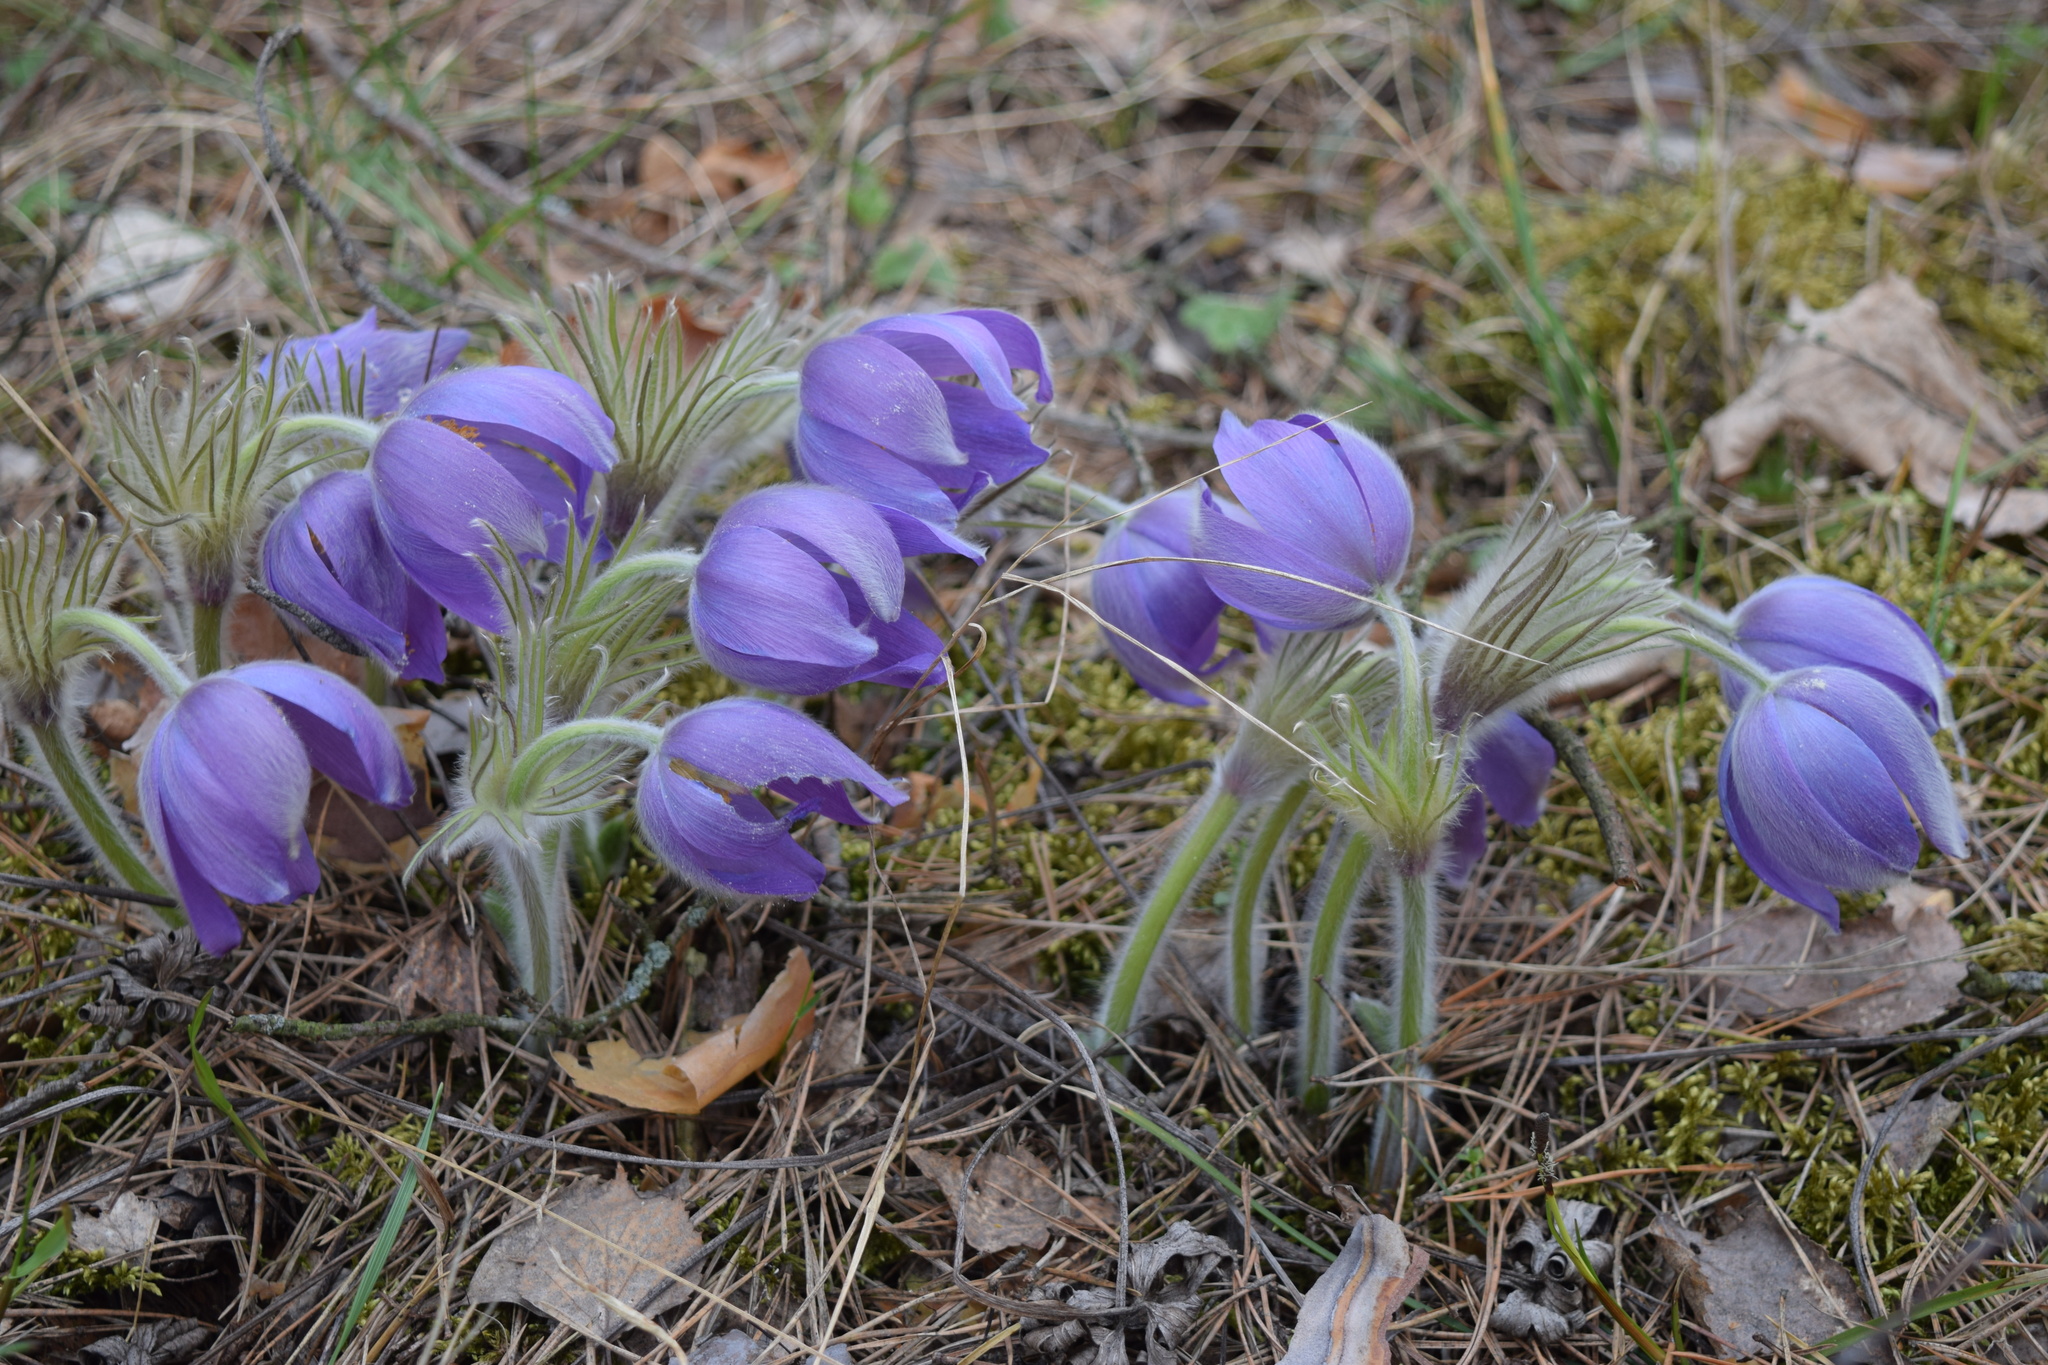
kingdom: Plantae
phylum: Tracheophyta
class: Magnoliopsida
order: Ranunculales
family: Ranunculaceae
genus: Pulsatilla
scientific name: Pulsatilla patens
